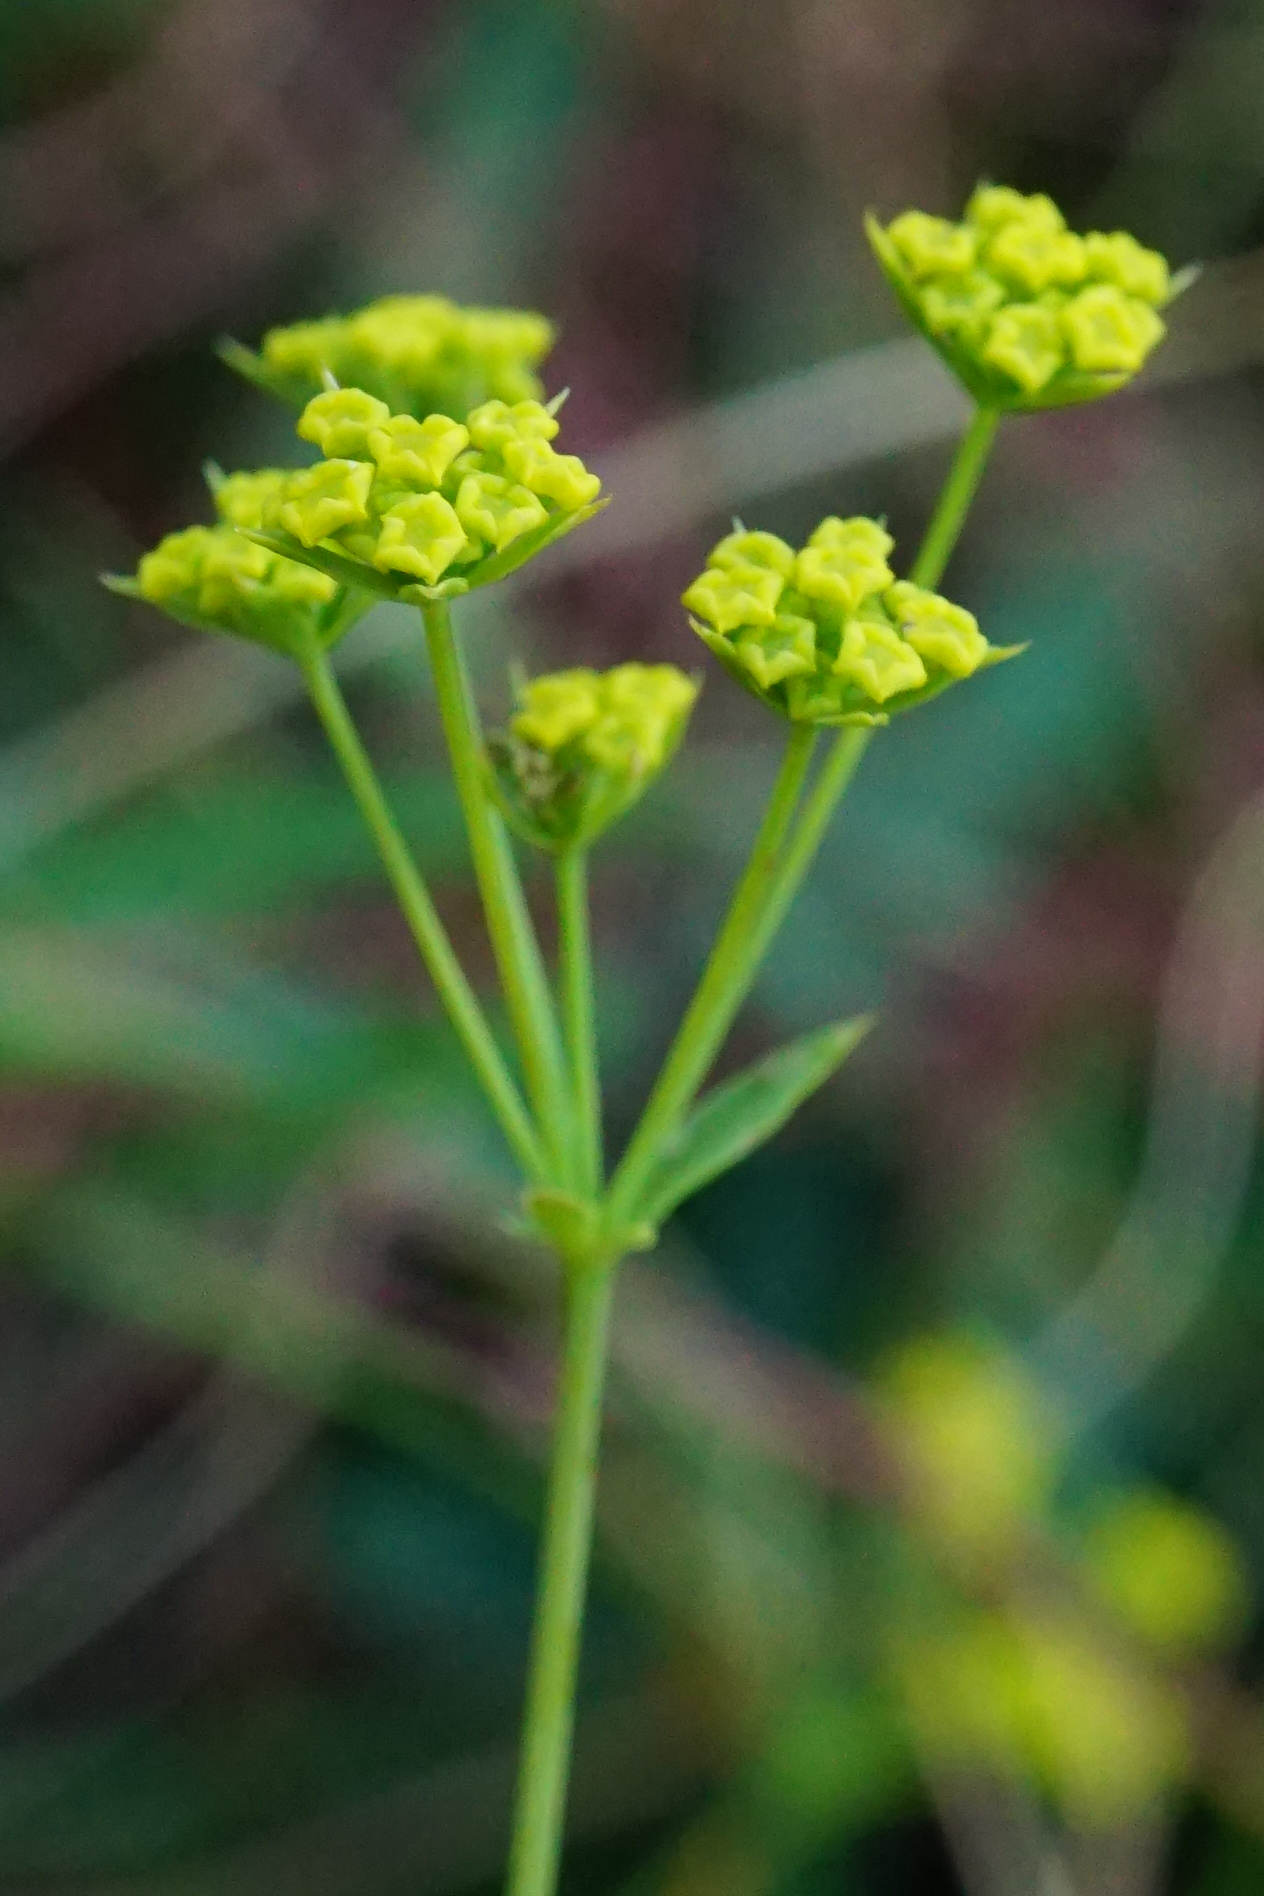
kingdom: Plantae
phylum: Tracheophyta
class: Magnoliopsida
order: Apiales
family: Apiaceae
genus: Bupleurum
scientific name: Bupleurum falcatum
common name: Sickle-leaved hare's-ear
